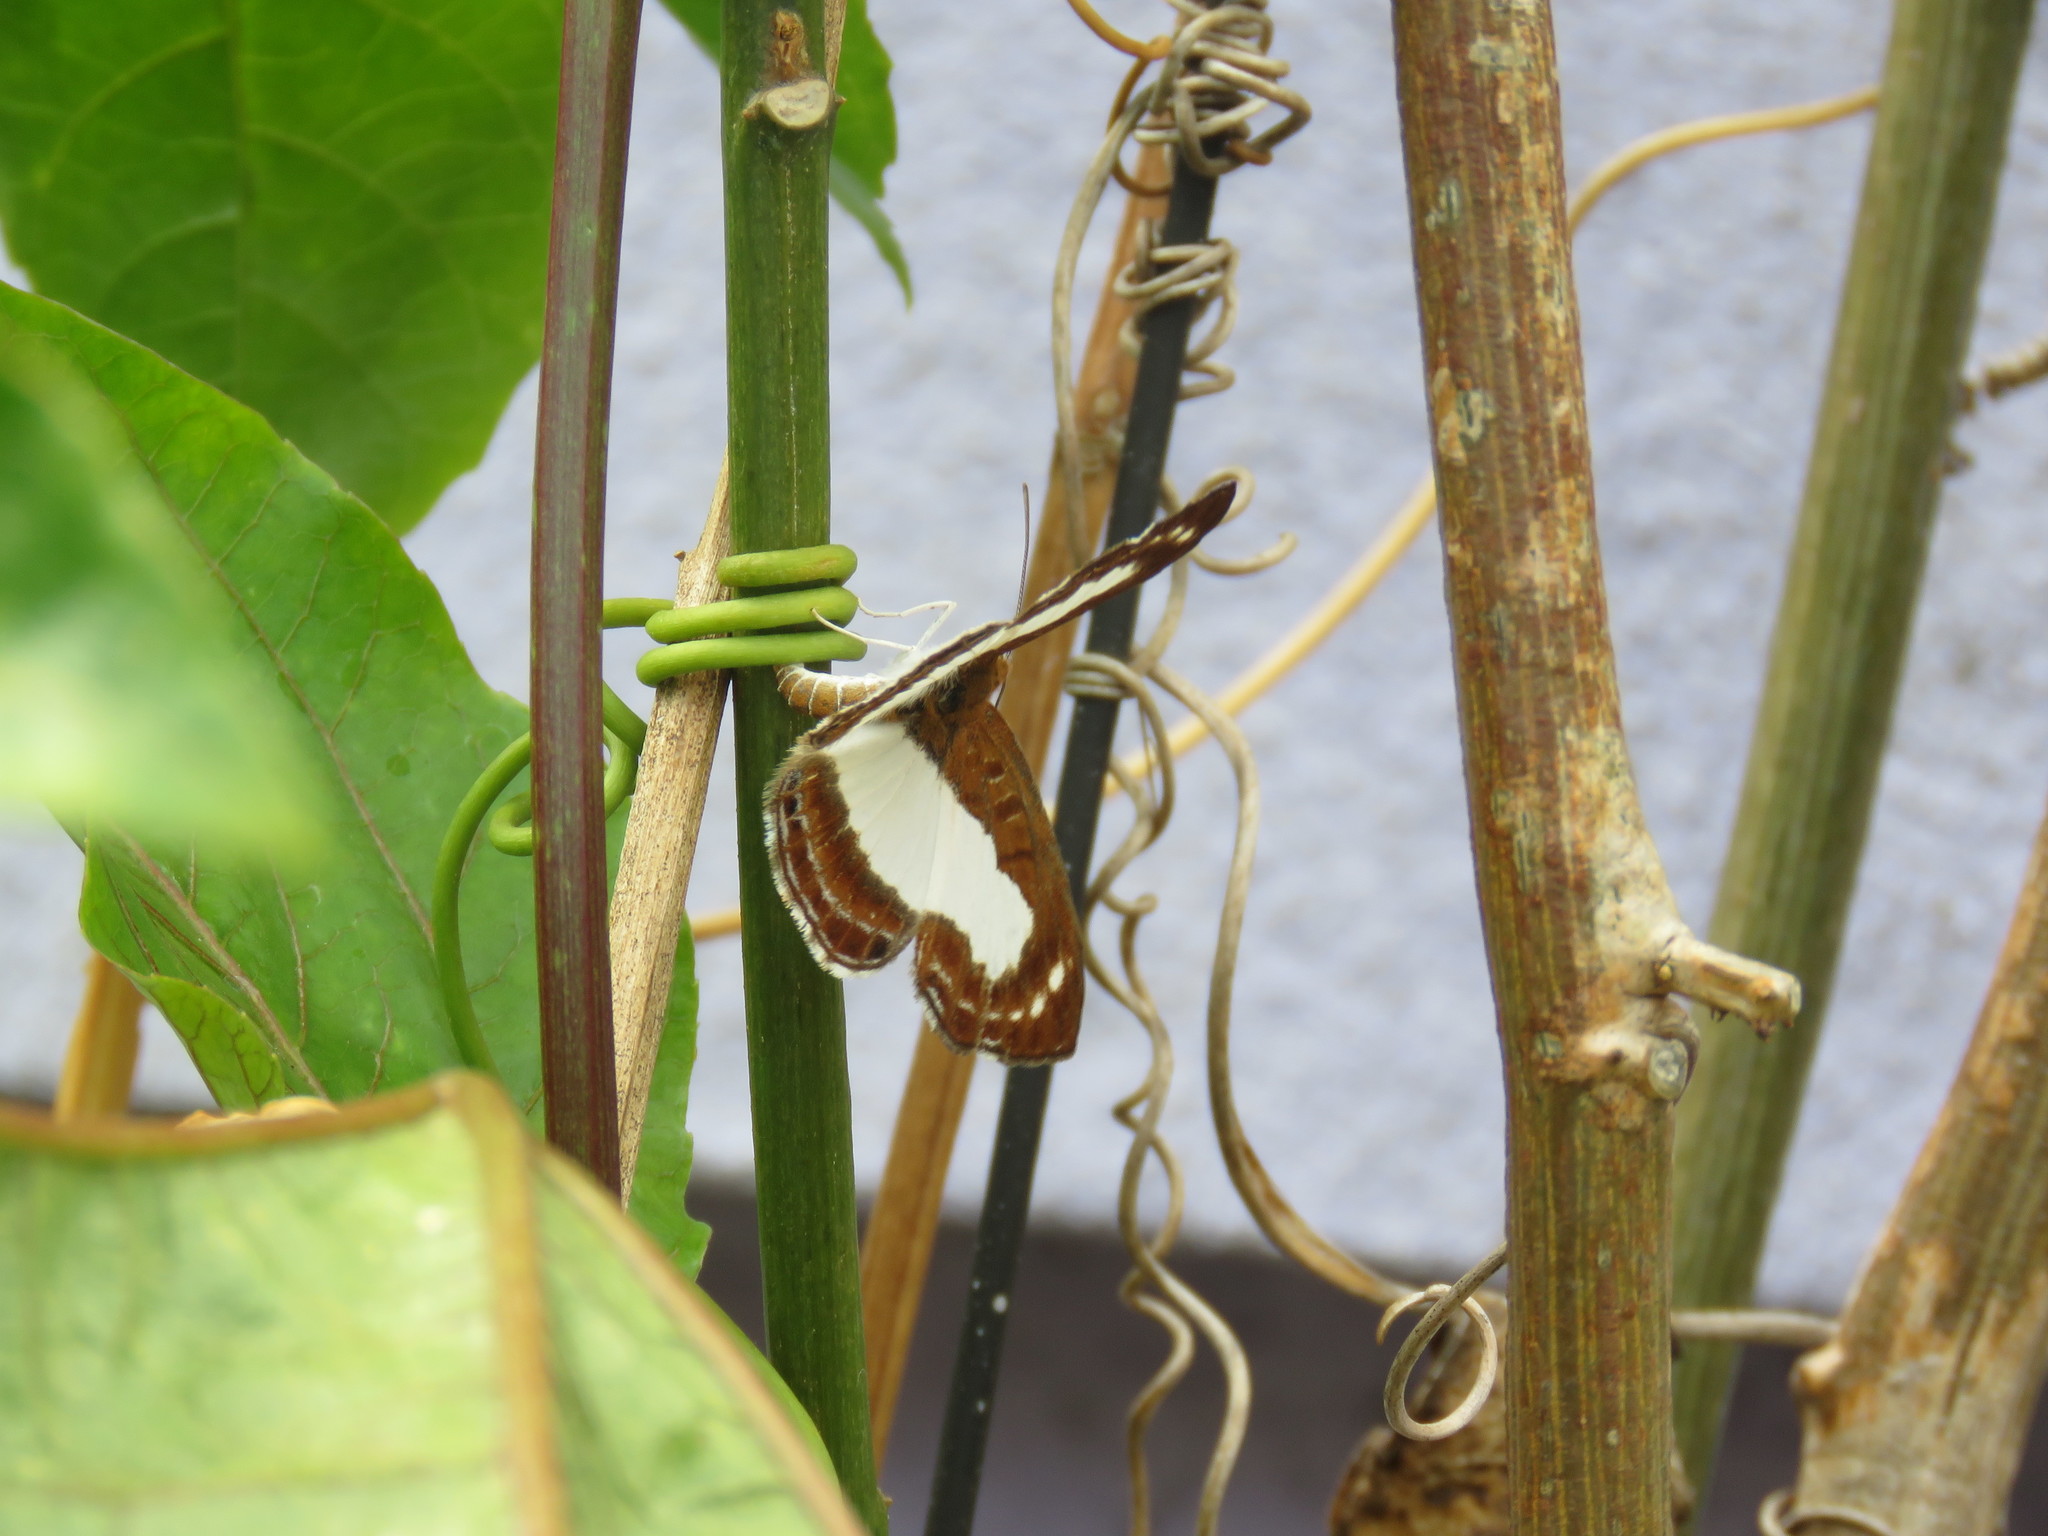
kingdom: Animalia
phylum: Arthropoda
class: Insecta
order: Lepidoptera
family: Riodinidae
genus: Synargis
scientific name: Synargis mycone
